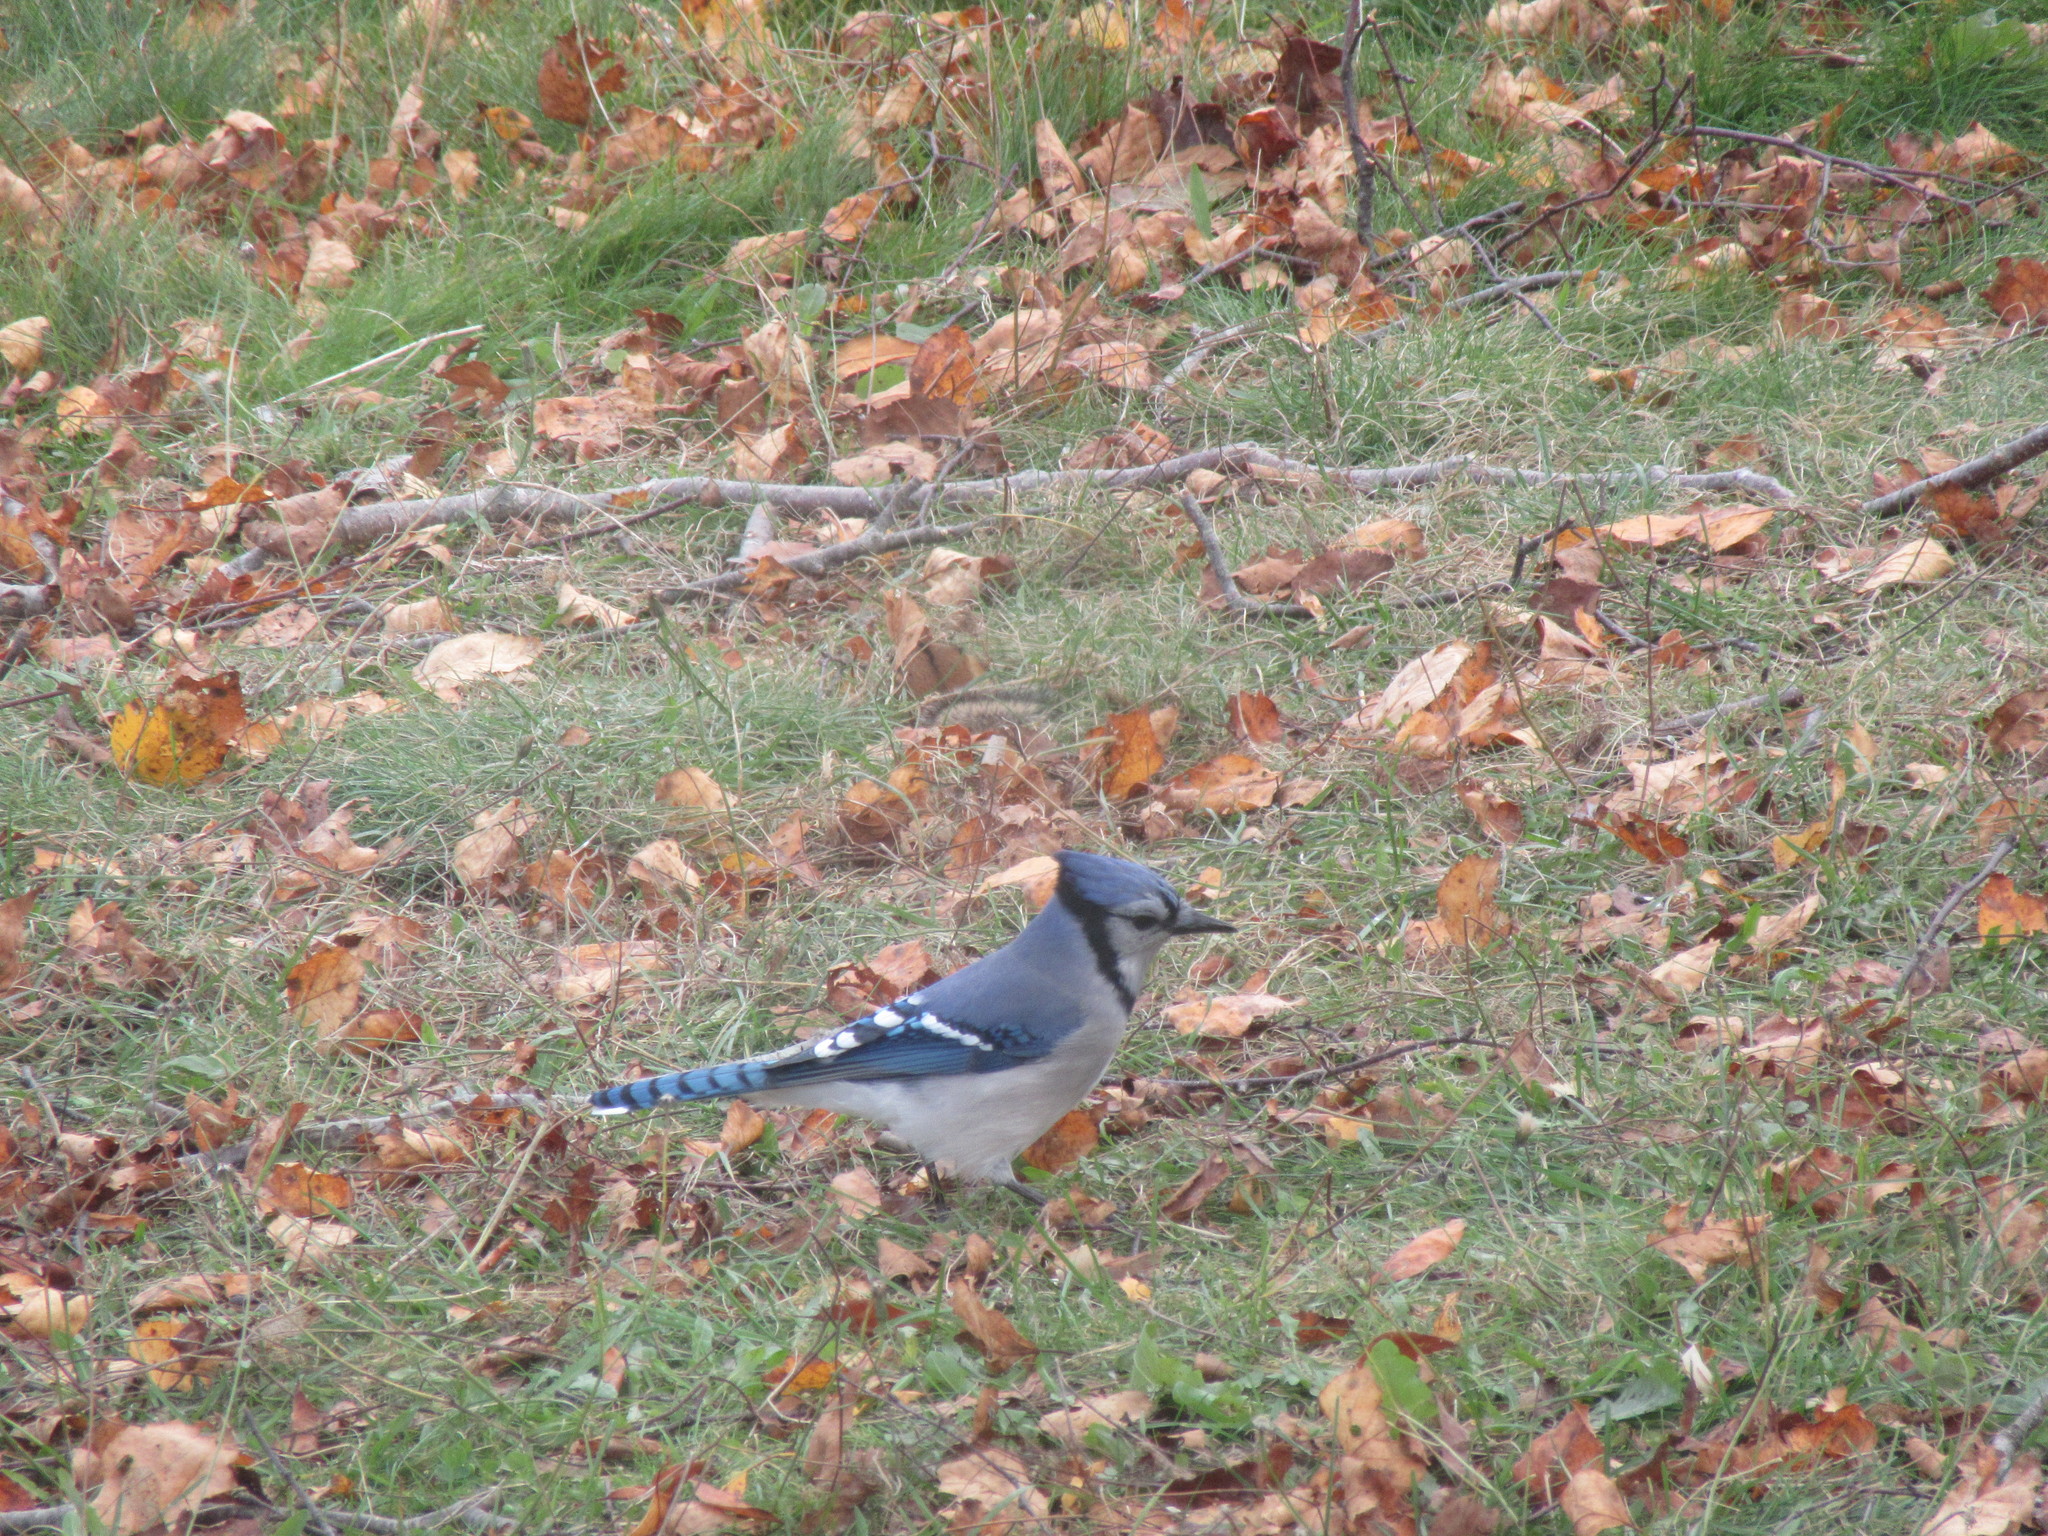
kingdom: Animalia
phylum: Chordata
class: Aves
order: Passeriformes
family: Corvidae
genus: Cyanocitta
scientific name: Cyanocitta cristata
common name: Blue jay
